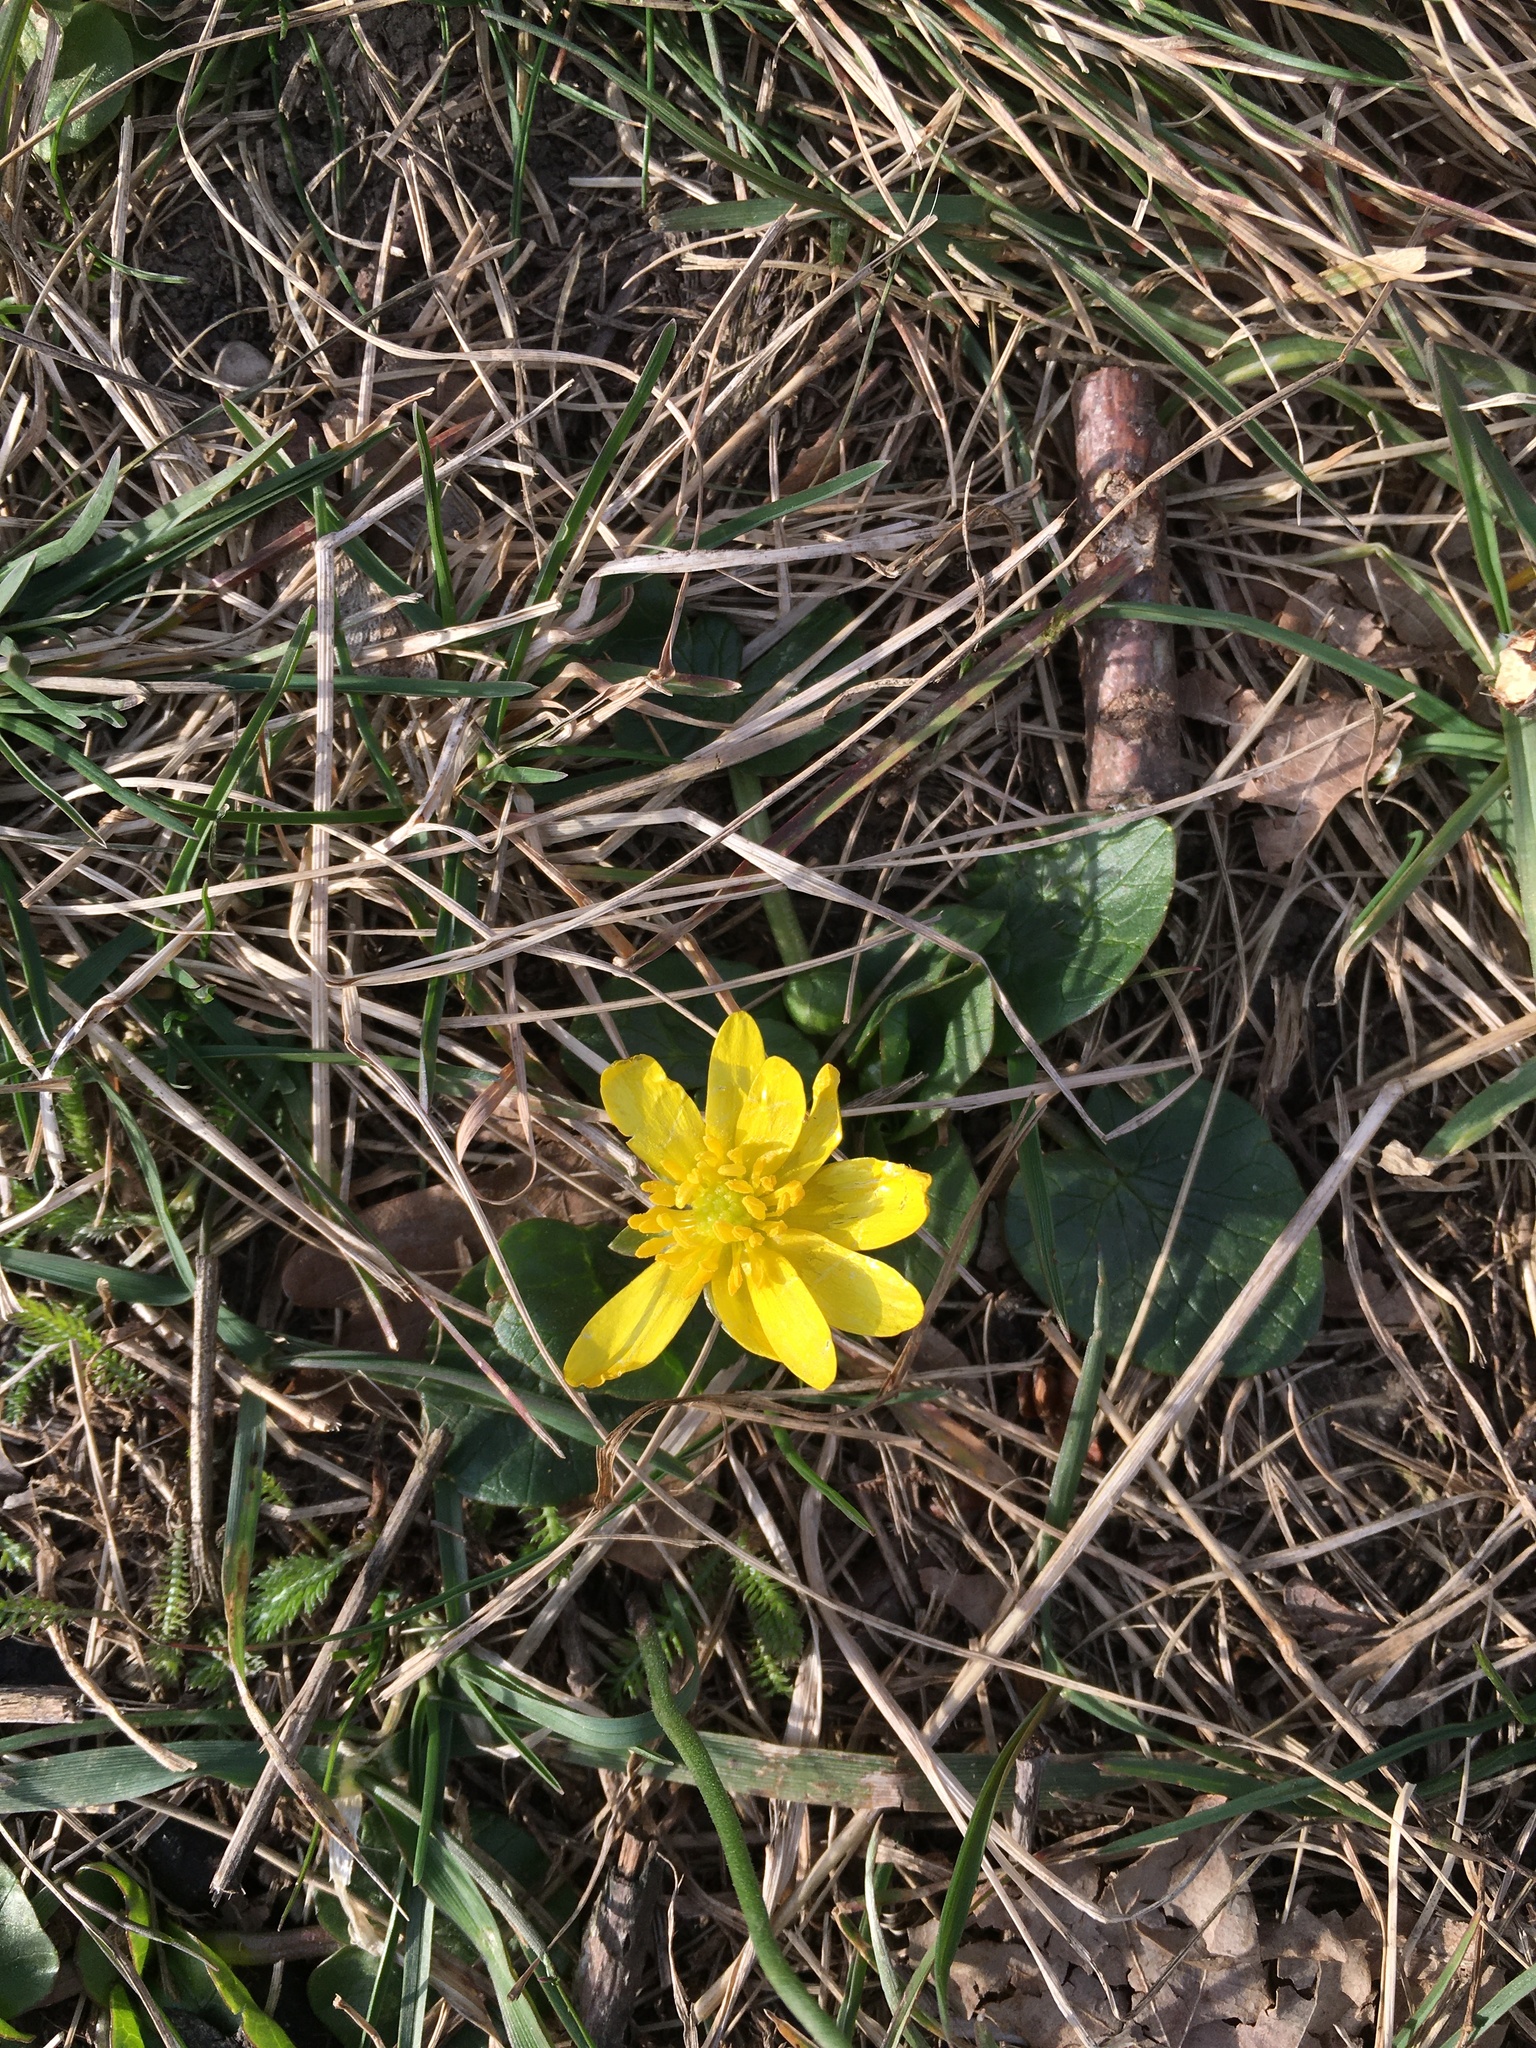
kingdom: Plantae
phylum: Tracheophyta
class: Magnoliopsida
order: Ranunculales
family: Ranunculaceae
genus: Ficaria
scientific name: Ficaria verna
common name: Lesser celandine
